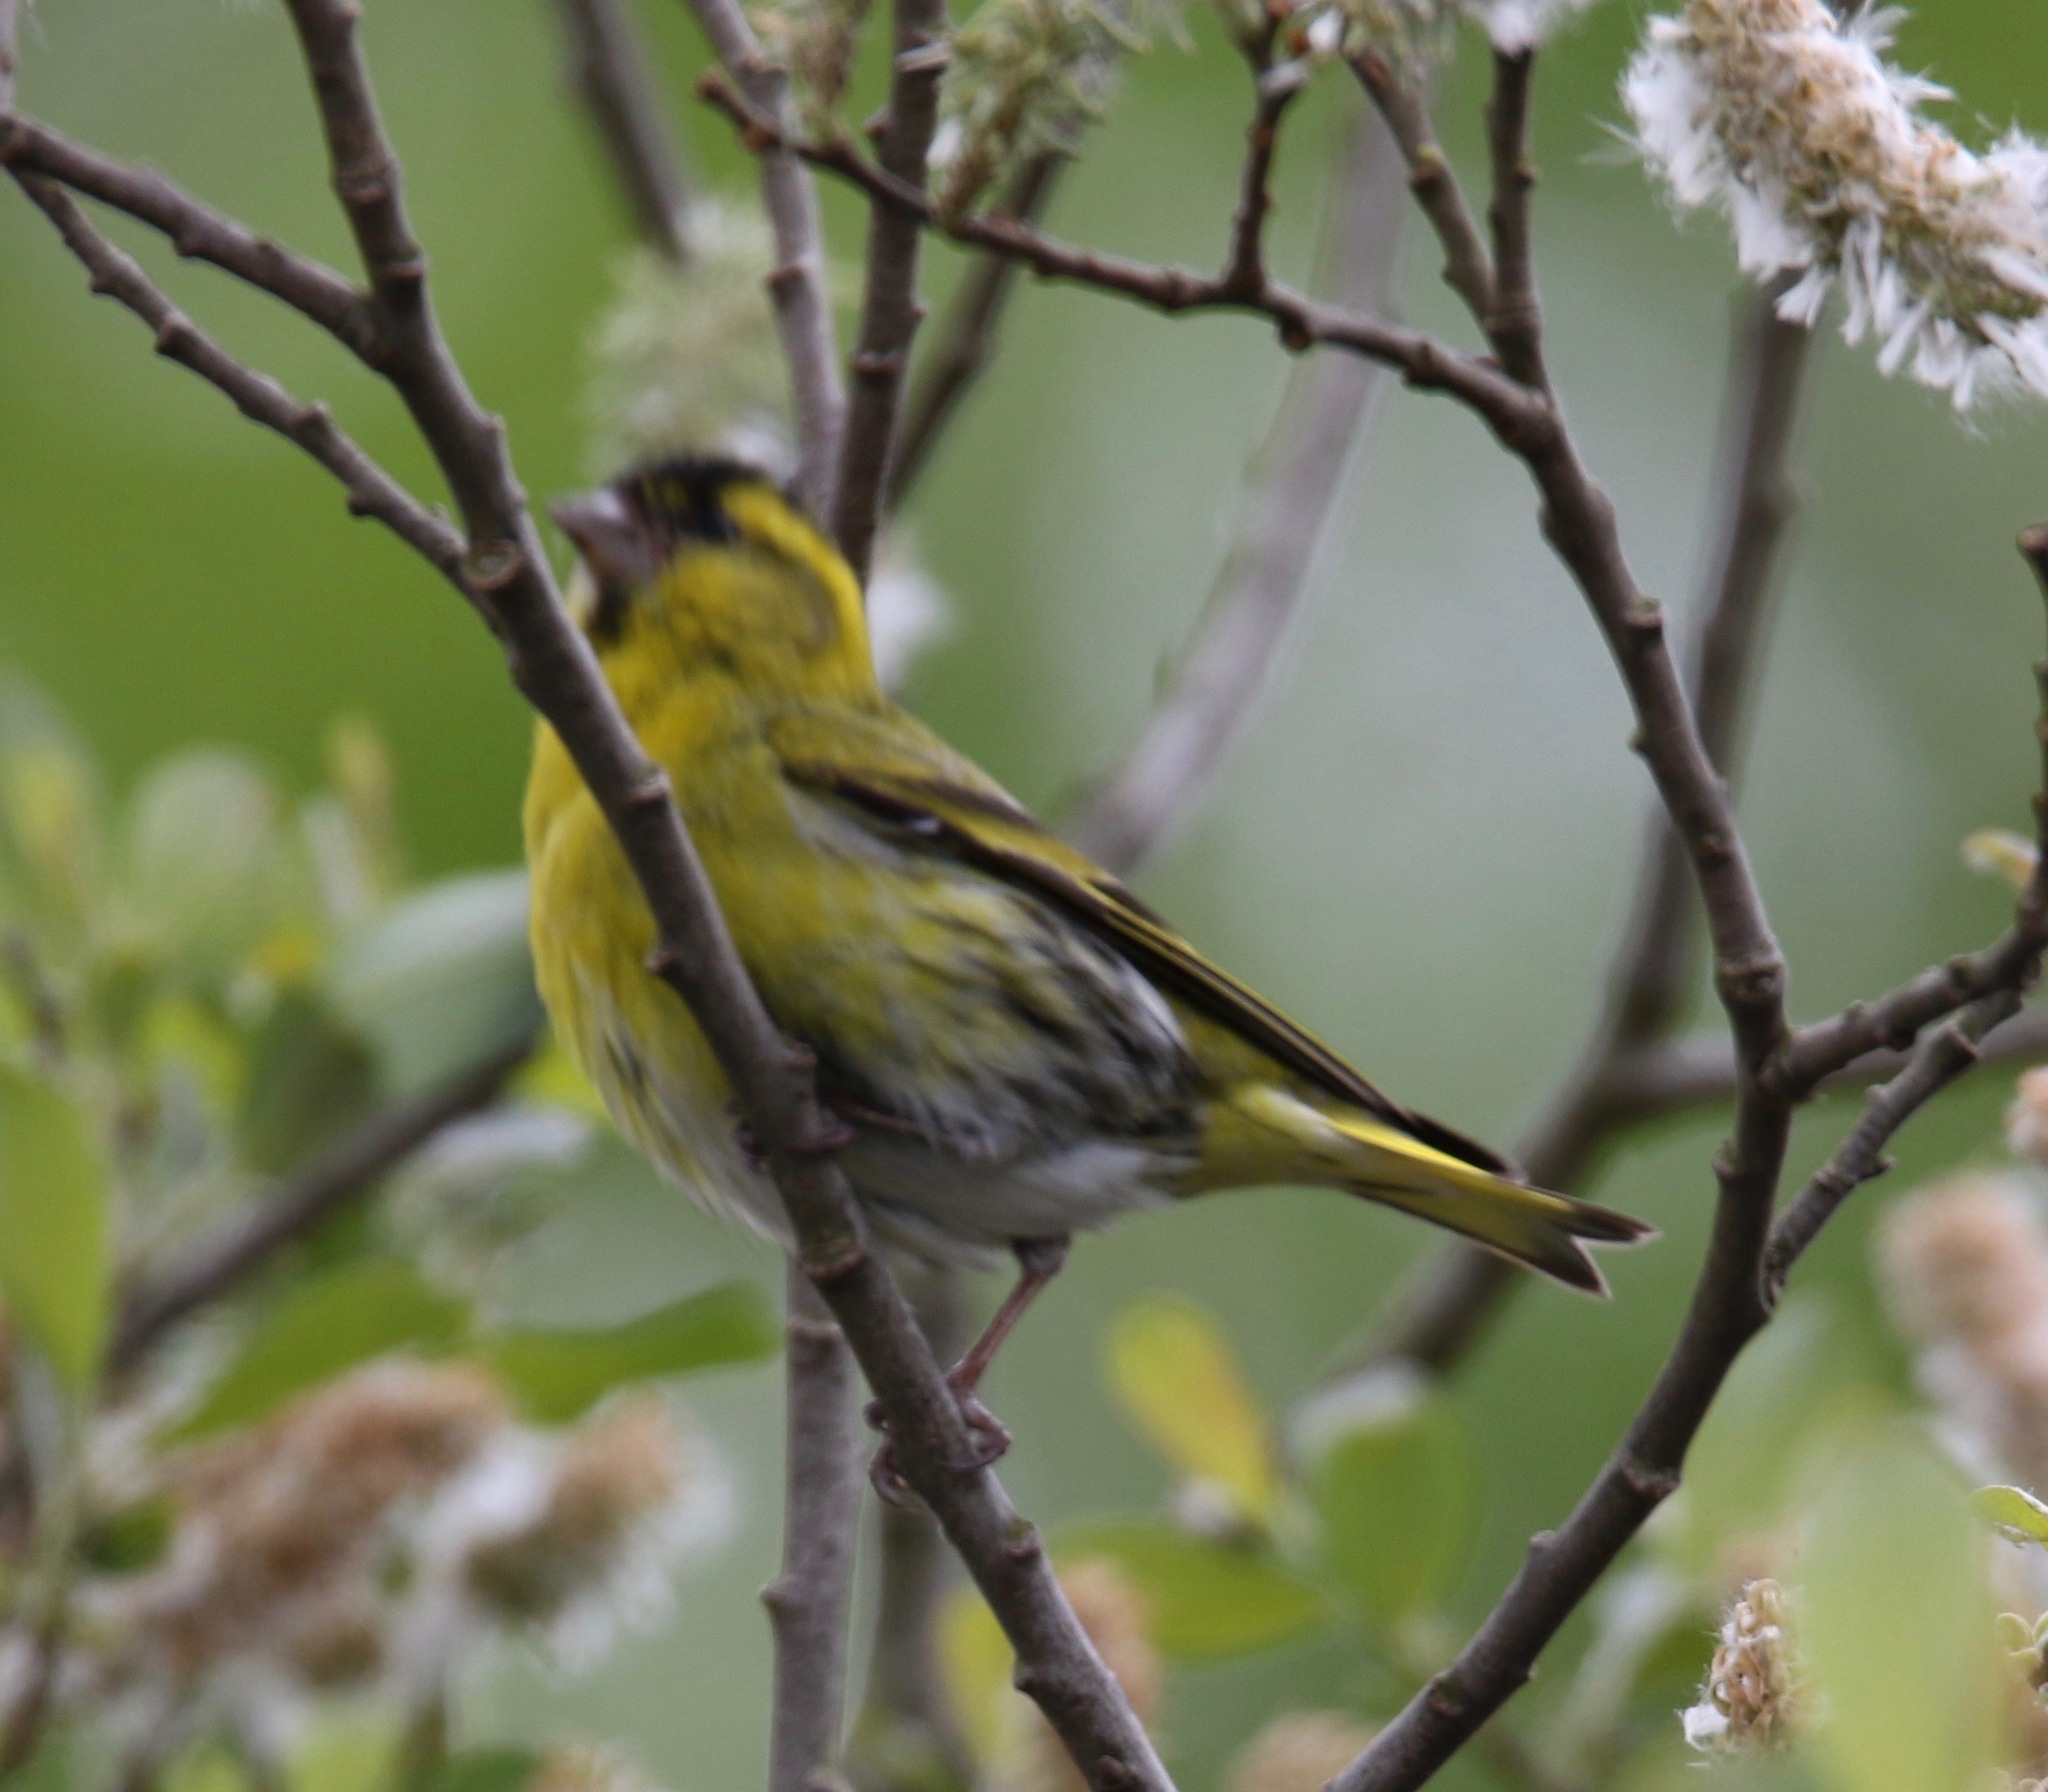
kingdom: Animalia
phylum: Chordata
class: Aves
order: Passeriformes
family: Fringillidae
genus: Spinus
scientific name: Spinus spinus
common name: Eurasian siskin
